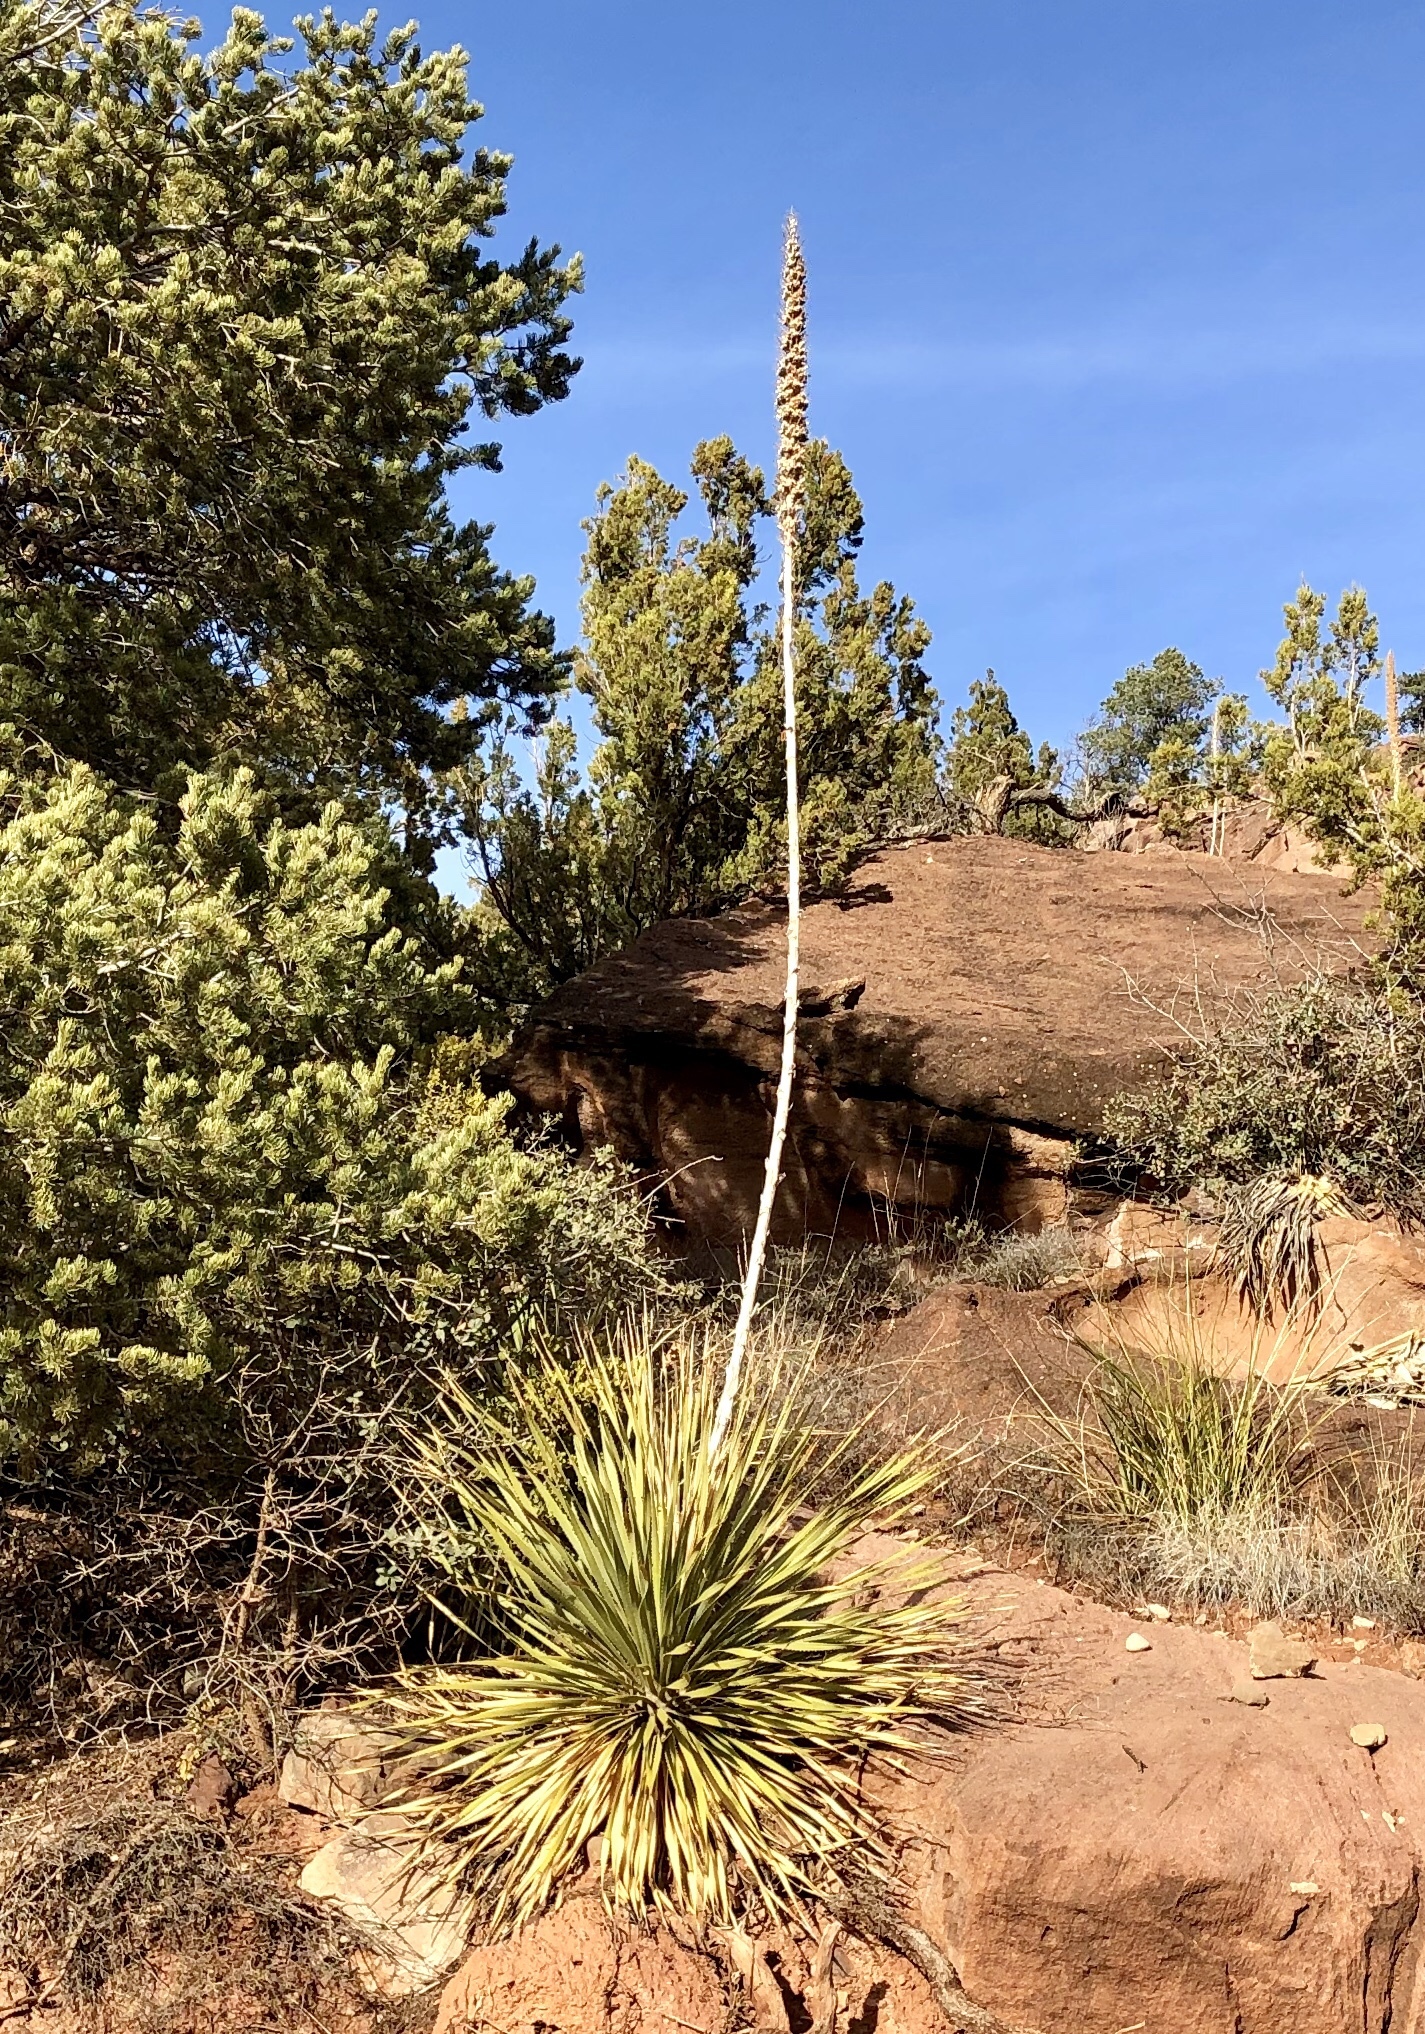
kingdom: Plantae
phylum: Tracheophyta
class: Liliopsida
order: Asparagales
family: Asparagaceae
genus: Dasylirion
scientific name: Dasylirion wheeleri
